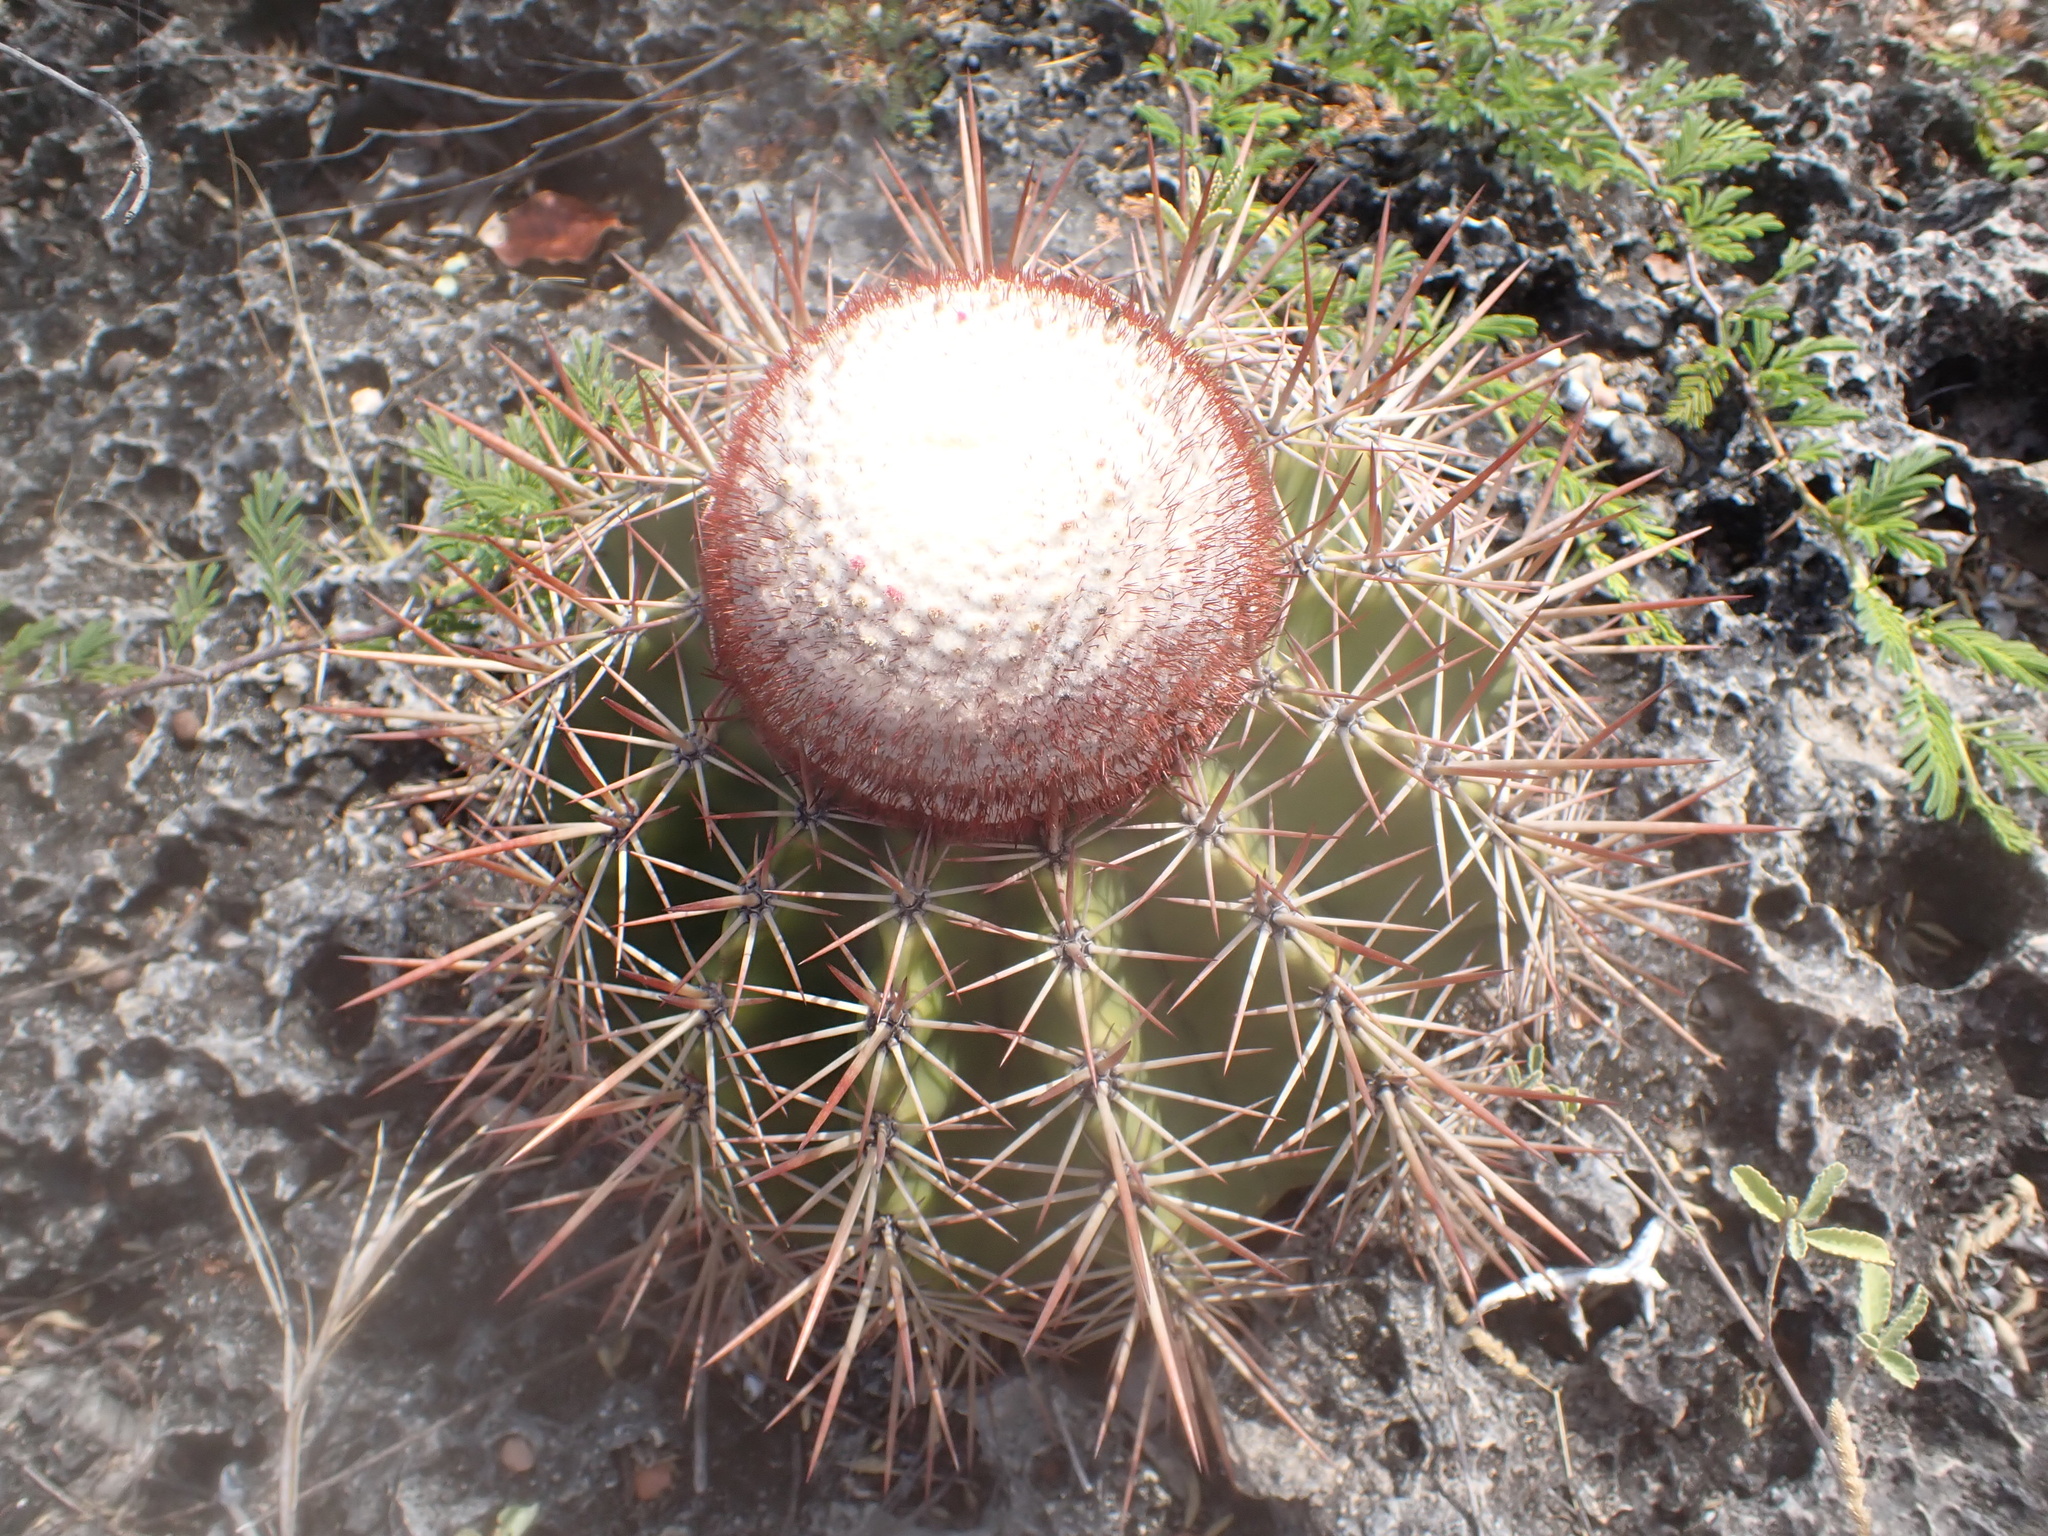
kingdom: Plantae
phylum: Tracheophyta
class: Magnoliopsida
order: Caryophyllales
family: Cactaceae
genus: Melocactus
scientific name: Melocactus macracanthos
